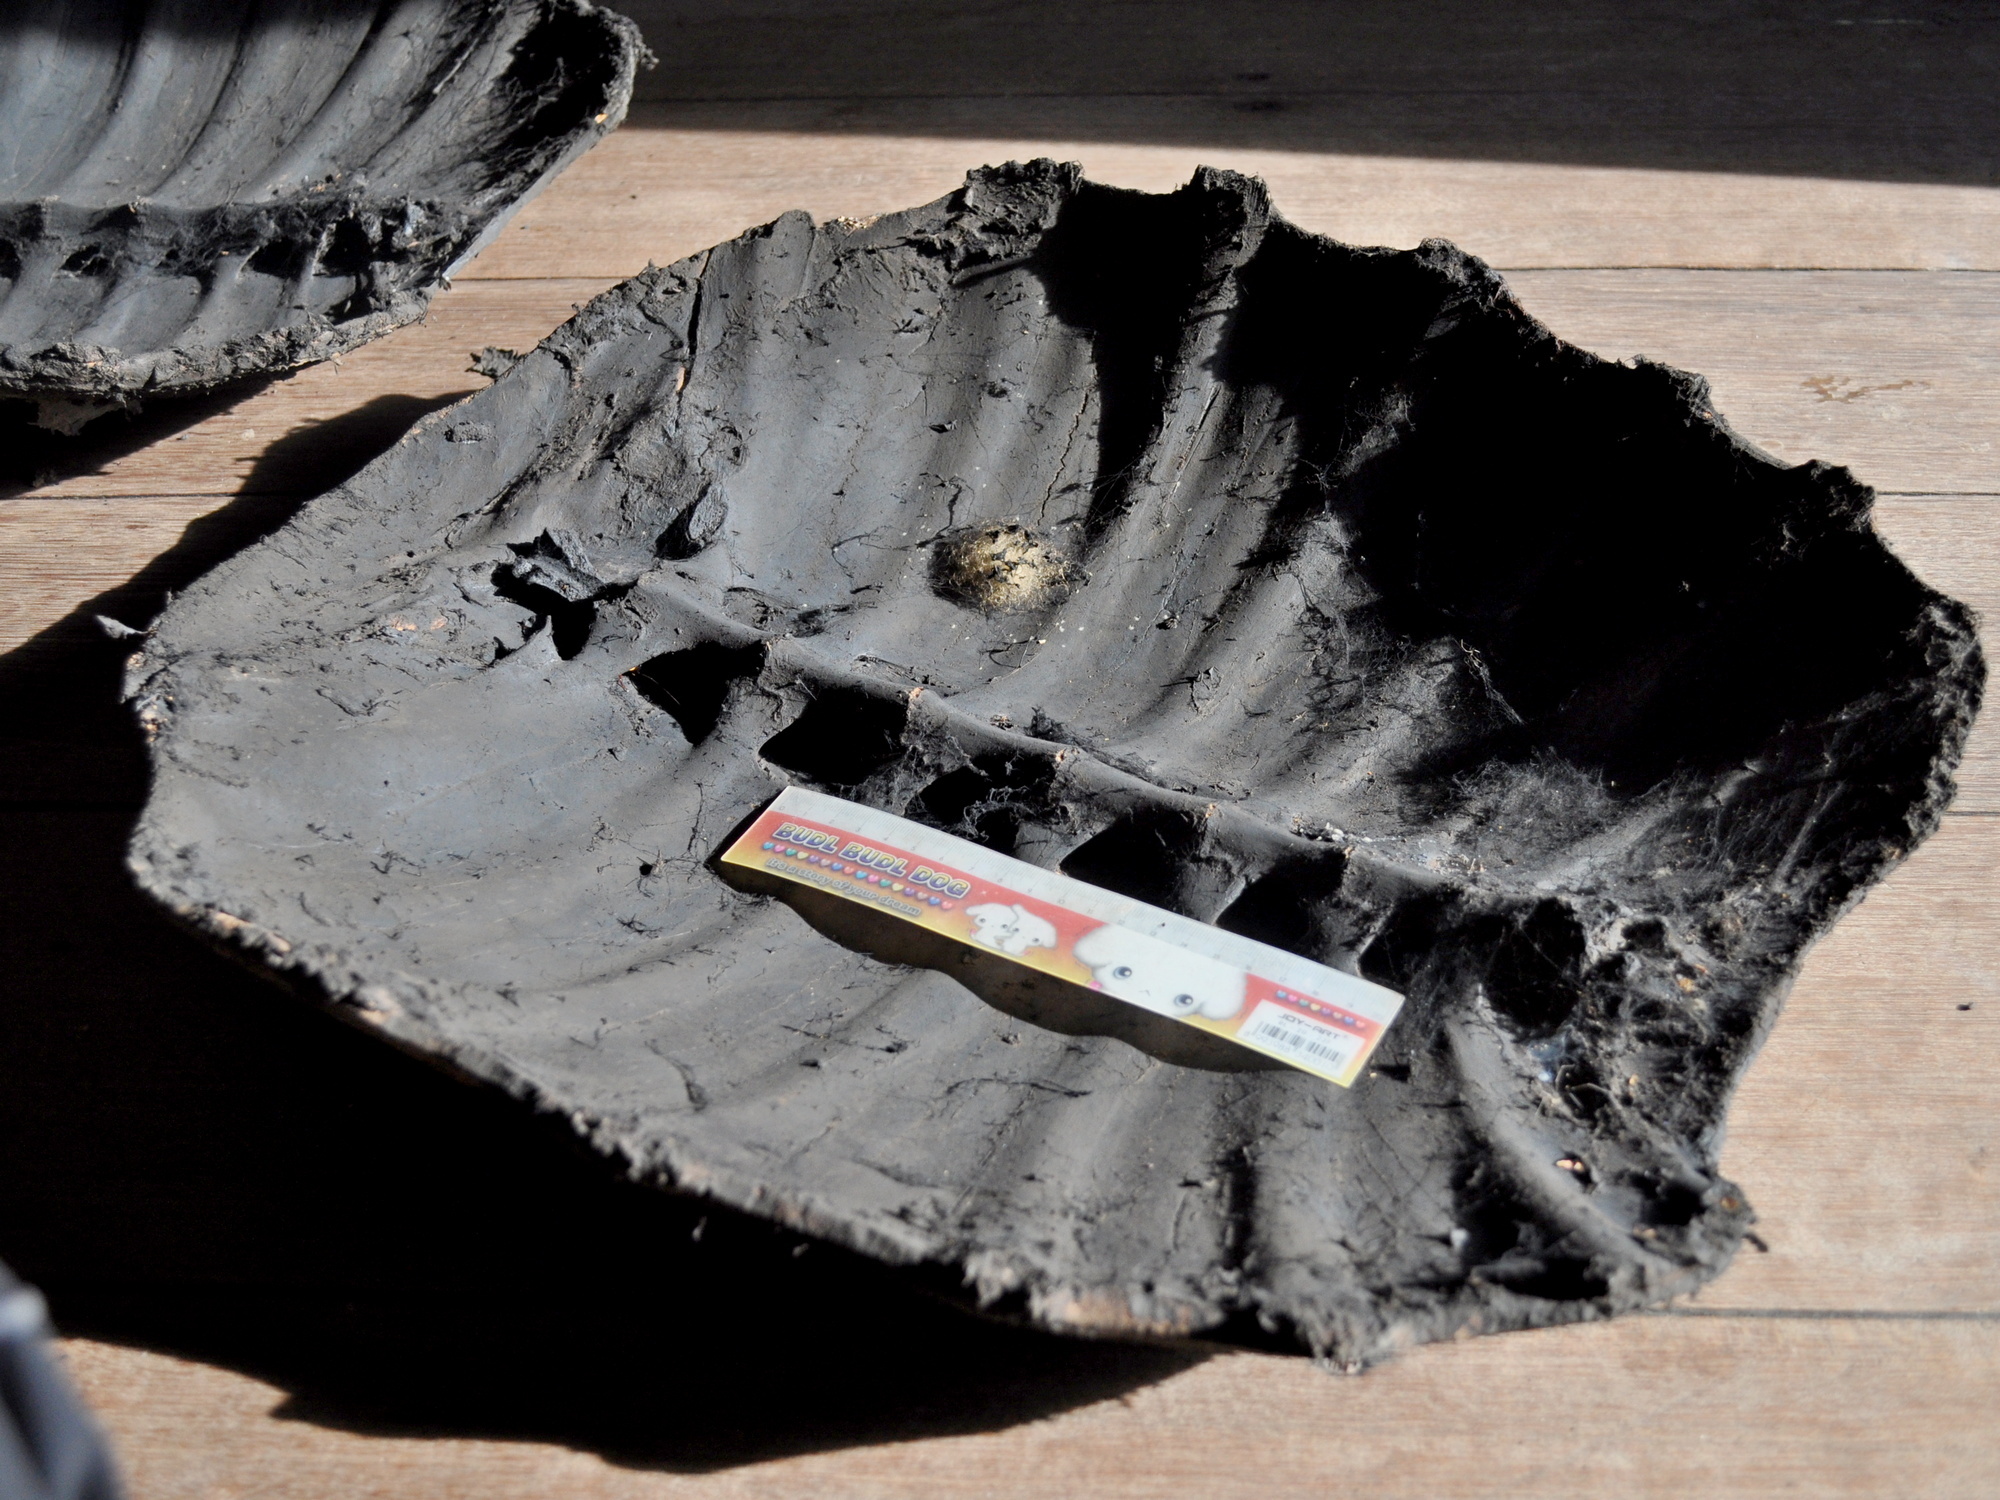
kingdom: Animalia
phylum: Chordata
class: Testudines
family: Trionychidae
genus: Amyda
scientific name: Amyda cartilaginea
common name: Asiatic softshell turtle
